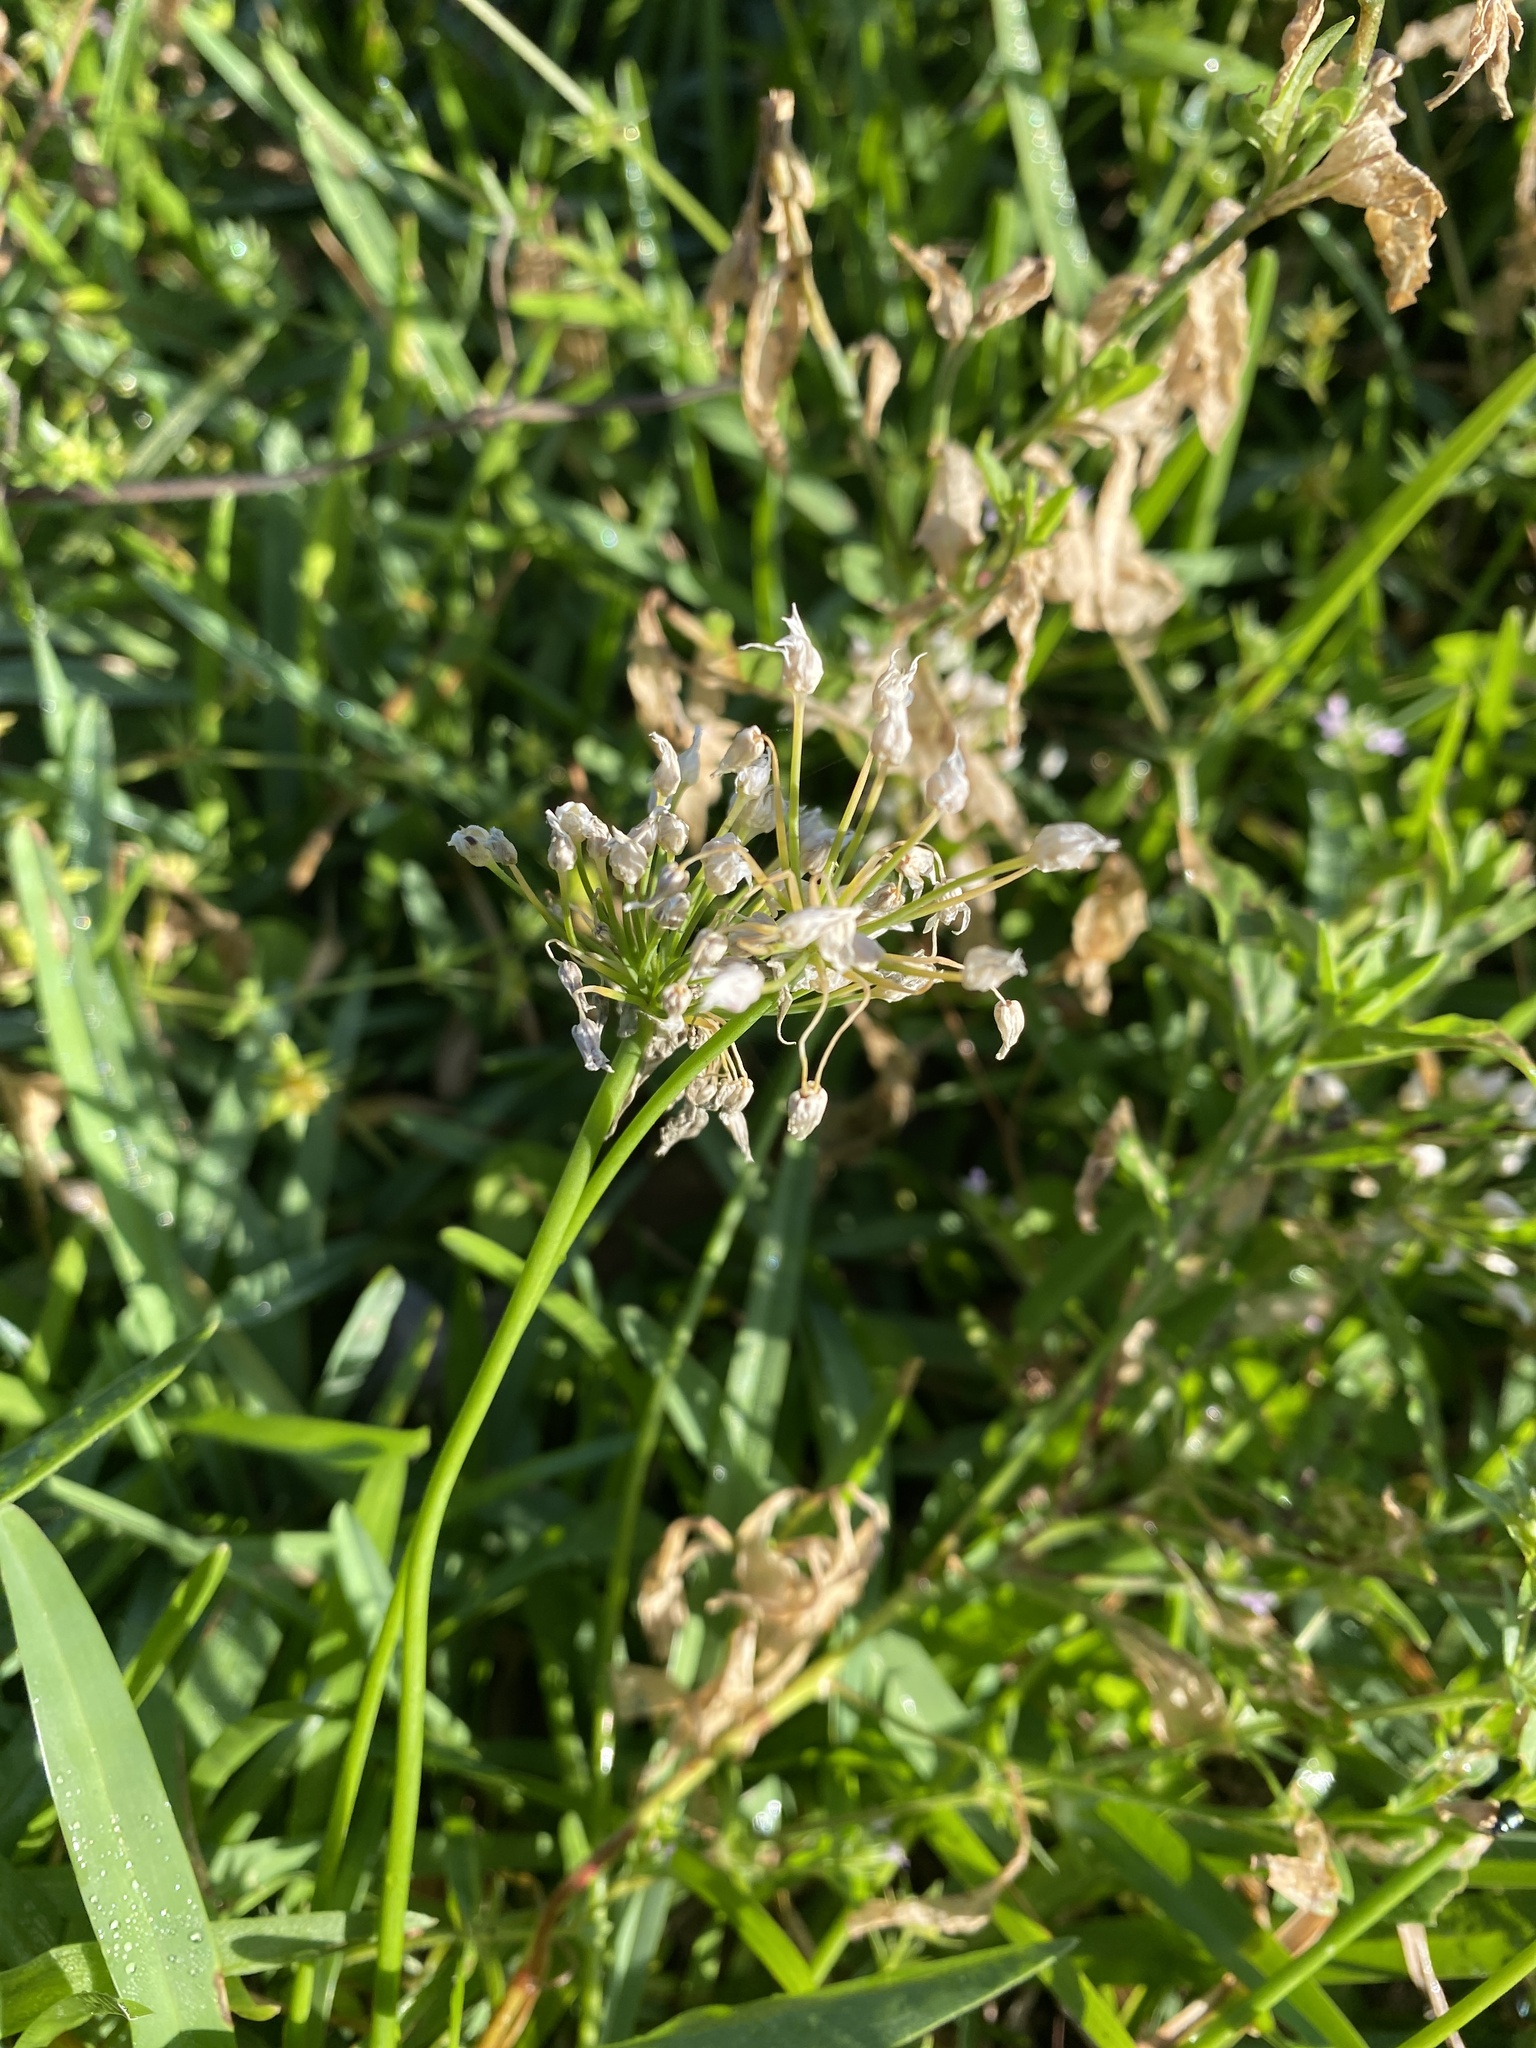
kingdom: Plantae
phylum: Tracheophyta
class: Liliopsida
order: Asparagales
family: Amaryllidaceae
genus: Allium
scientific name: Allium canadense
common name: Meadow garlic
